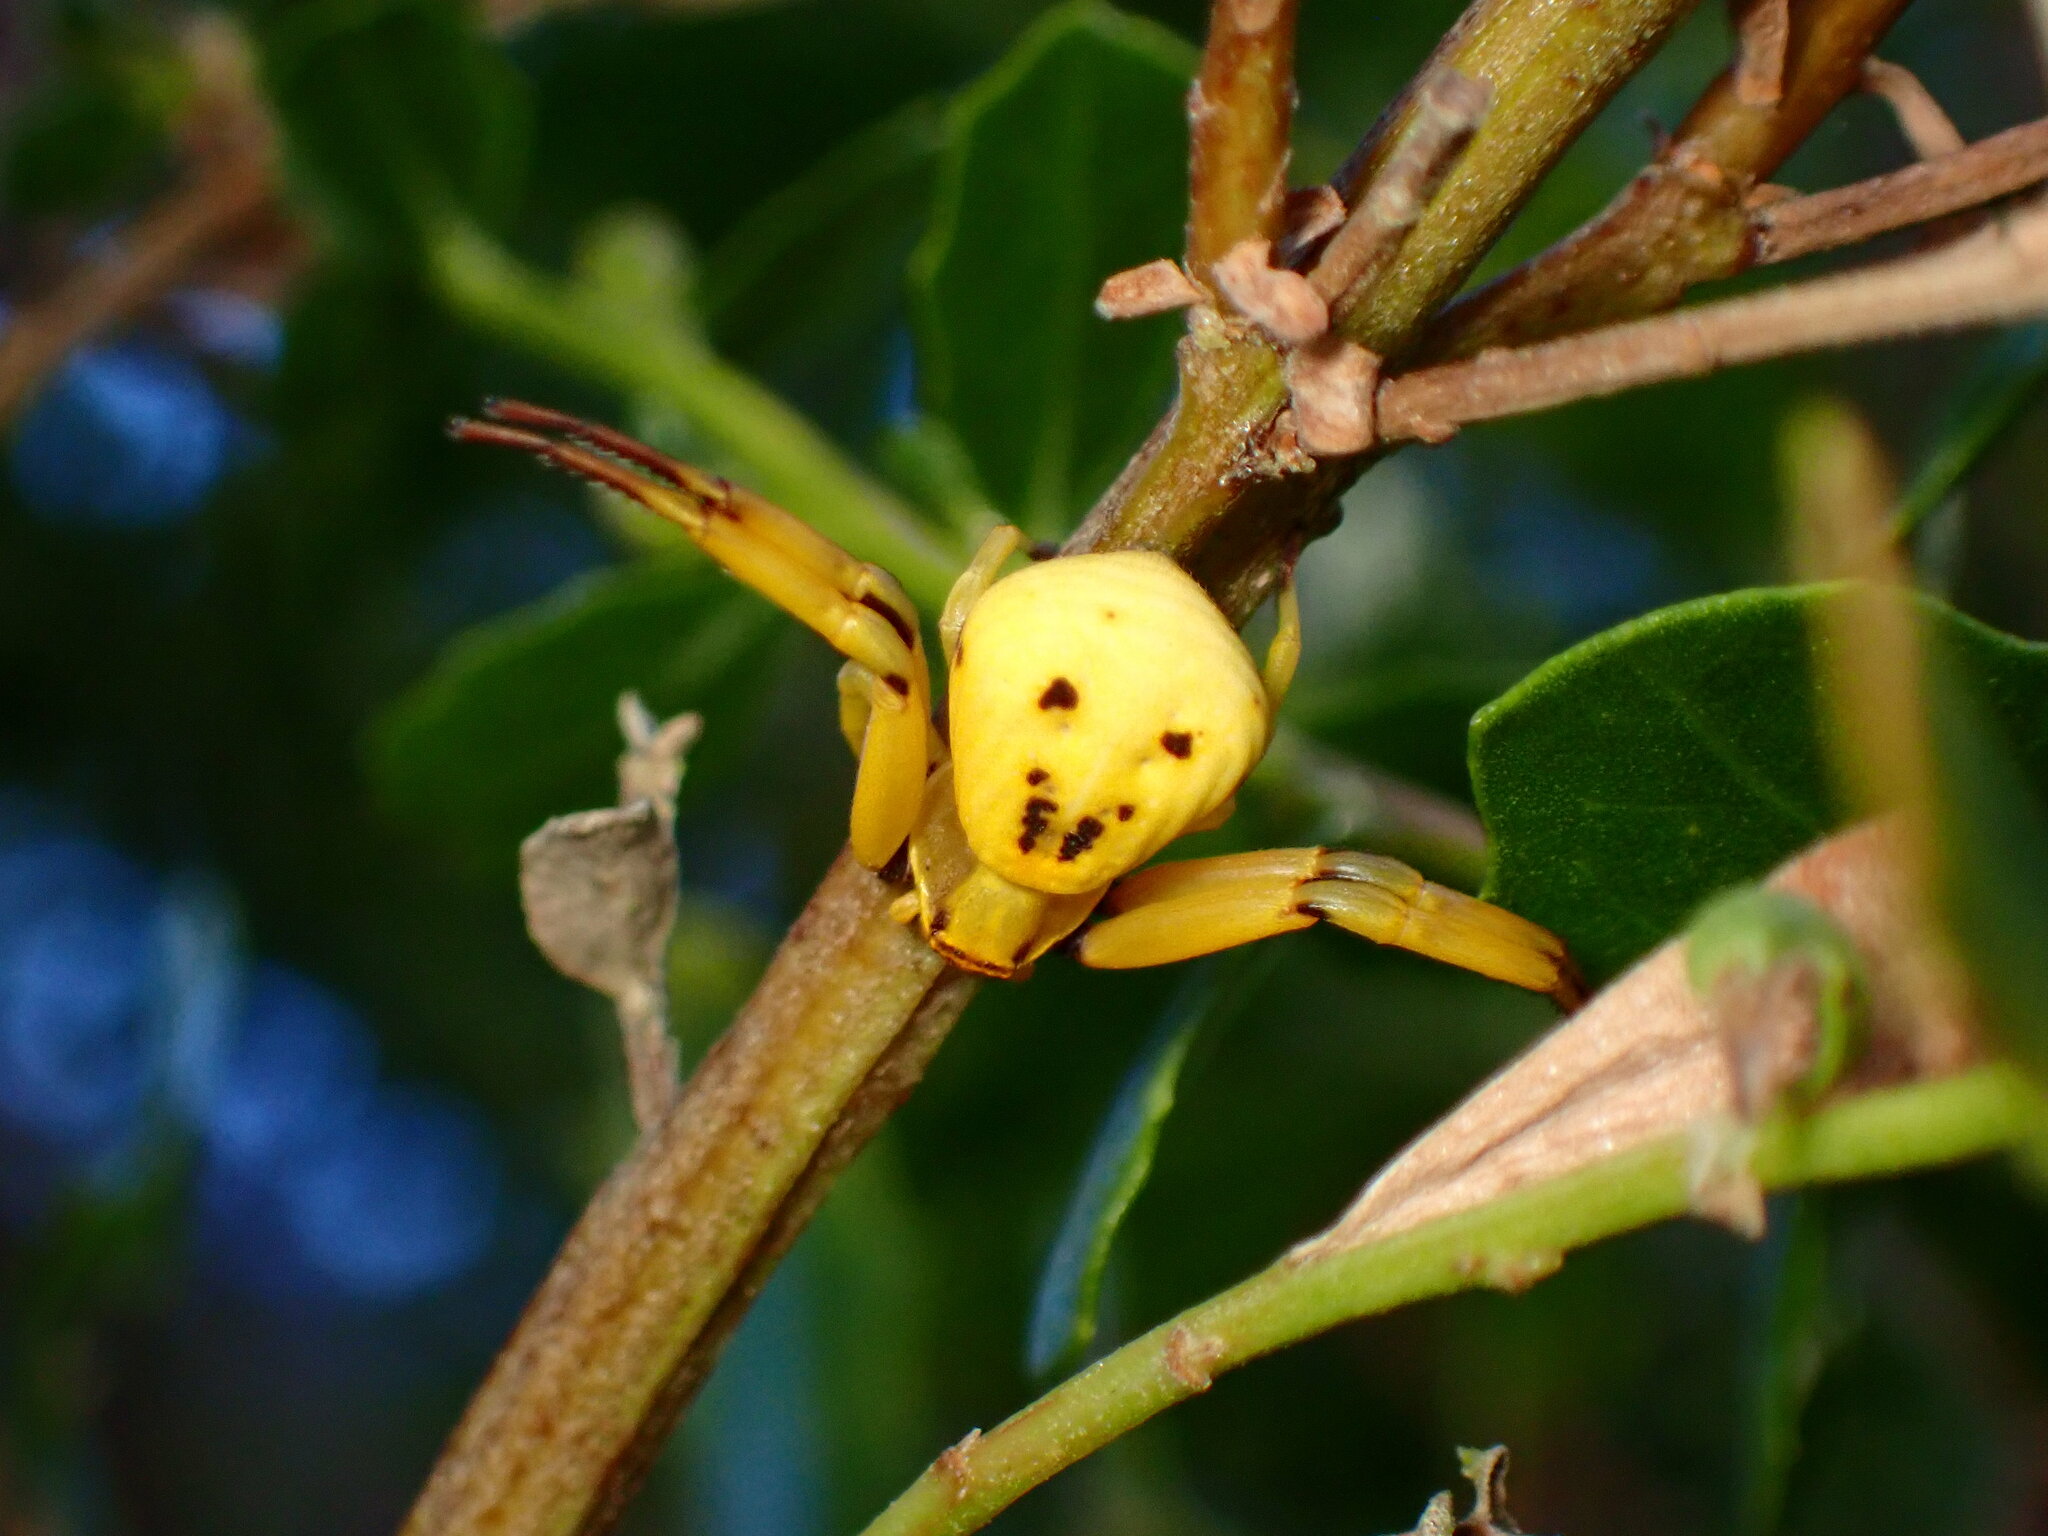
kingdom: Animalia
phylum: Arthropoda
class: Arachnida
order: Araneae
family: Thomisidae
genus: Misumenoides
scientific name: Misumenoides formosipes
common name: White-banded crab spider
